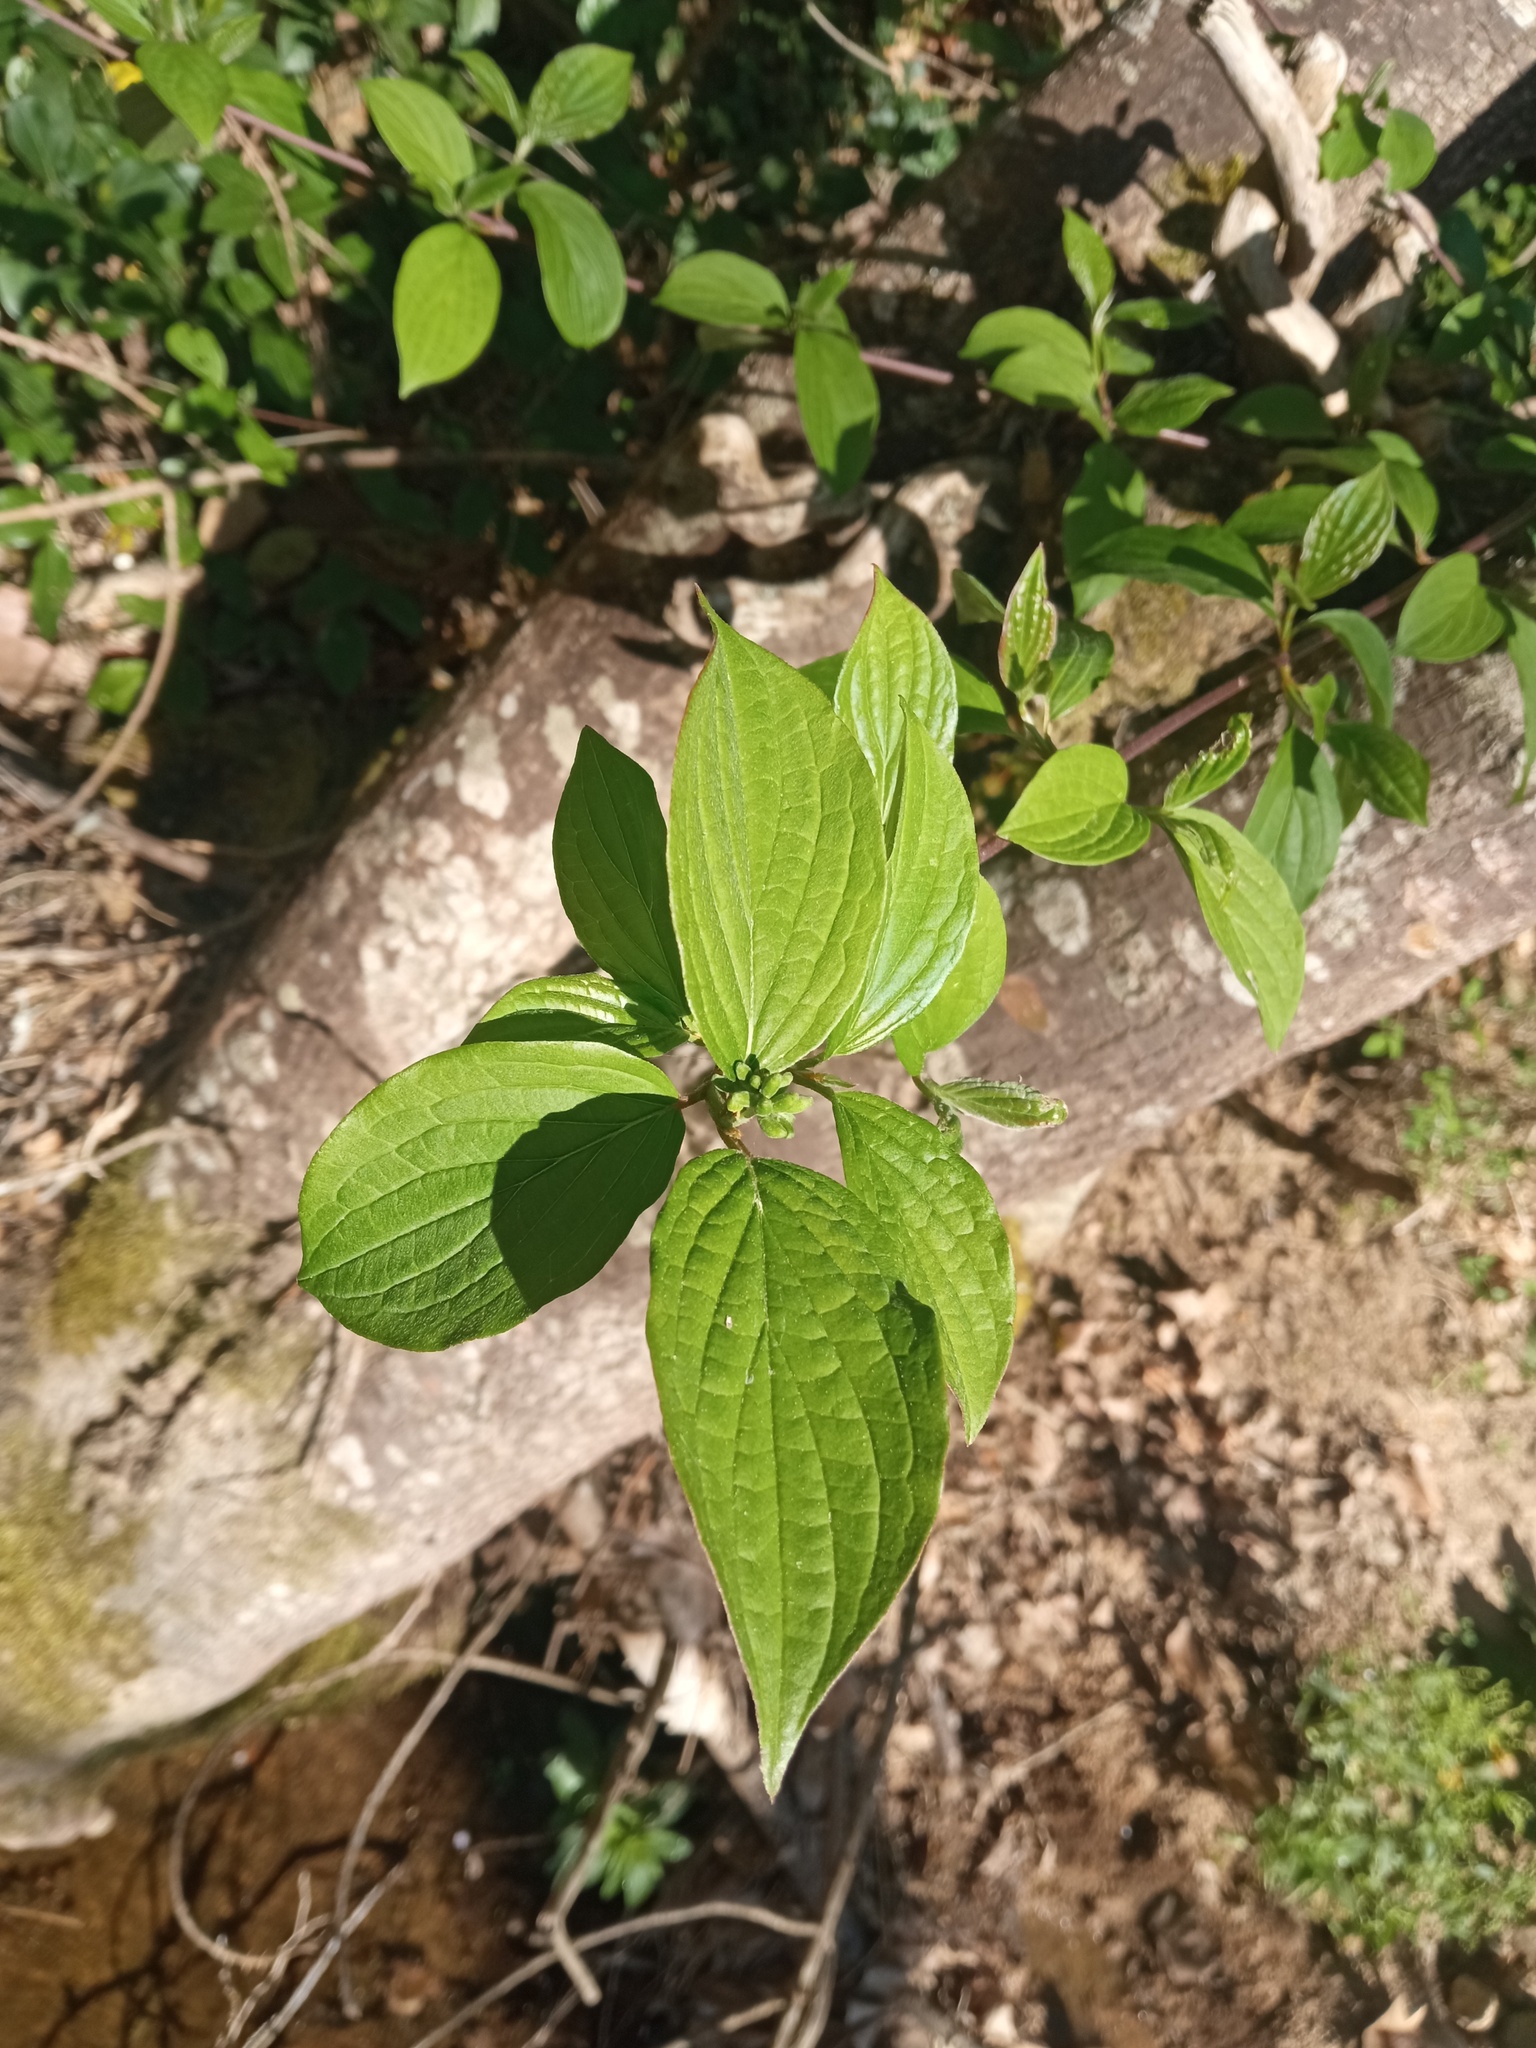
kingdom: Plantae
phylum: Tracheophyta
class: Magnoliopsida
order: Cornales
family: Cornaceae
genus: Cornus
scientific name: Cornus sanguinea
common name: Dogwood
